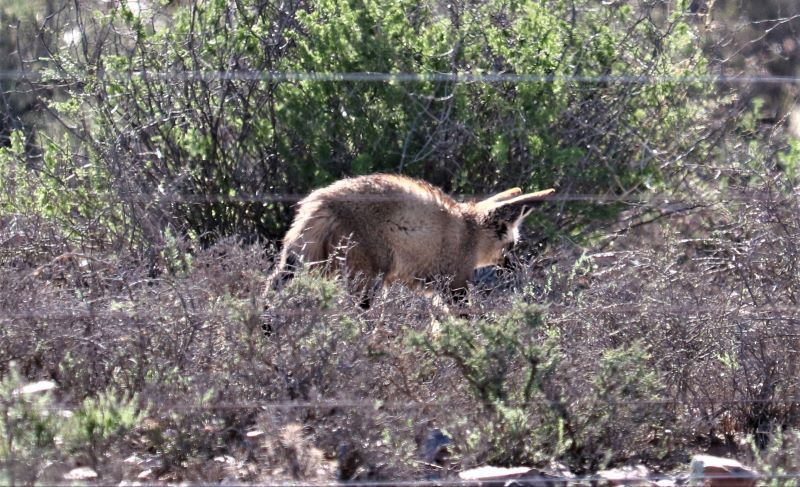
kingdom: Animalia
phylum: Chordata
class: Mammalia
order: Carnivora
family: Canidae
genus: Otocyon
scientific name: Otocyon megalotis
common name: Bat-eared fox
